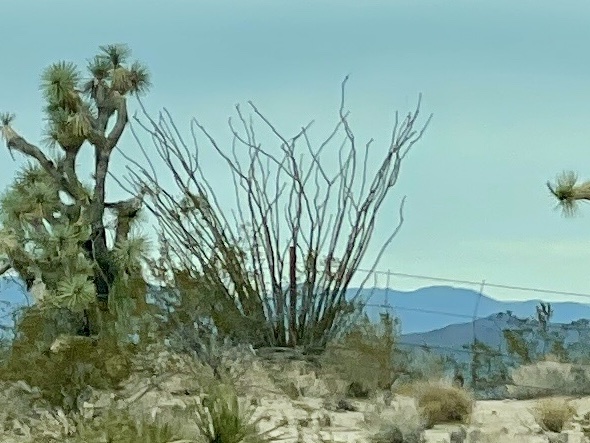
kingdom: Plantae
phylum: Tracheophyta
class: Magnoliopsida
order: Ericales
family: Fouquieriaceae
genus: Fouquieria
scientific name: Fouquieria splendens
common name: Vine-cactus
